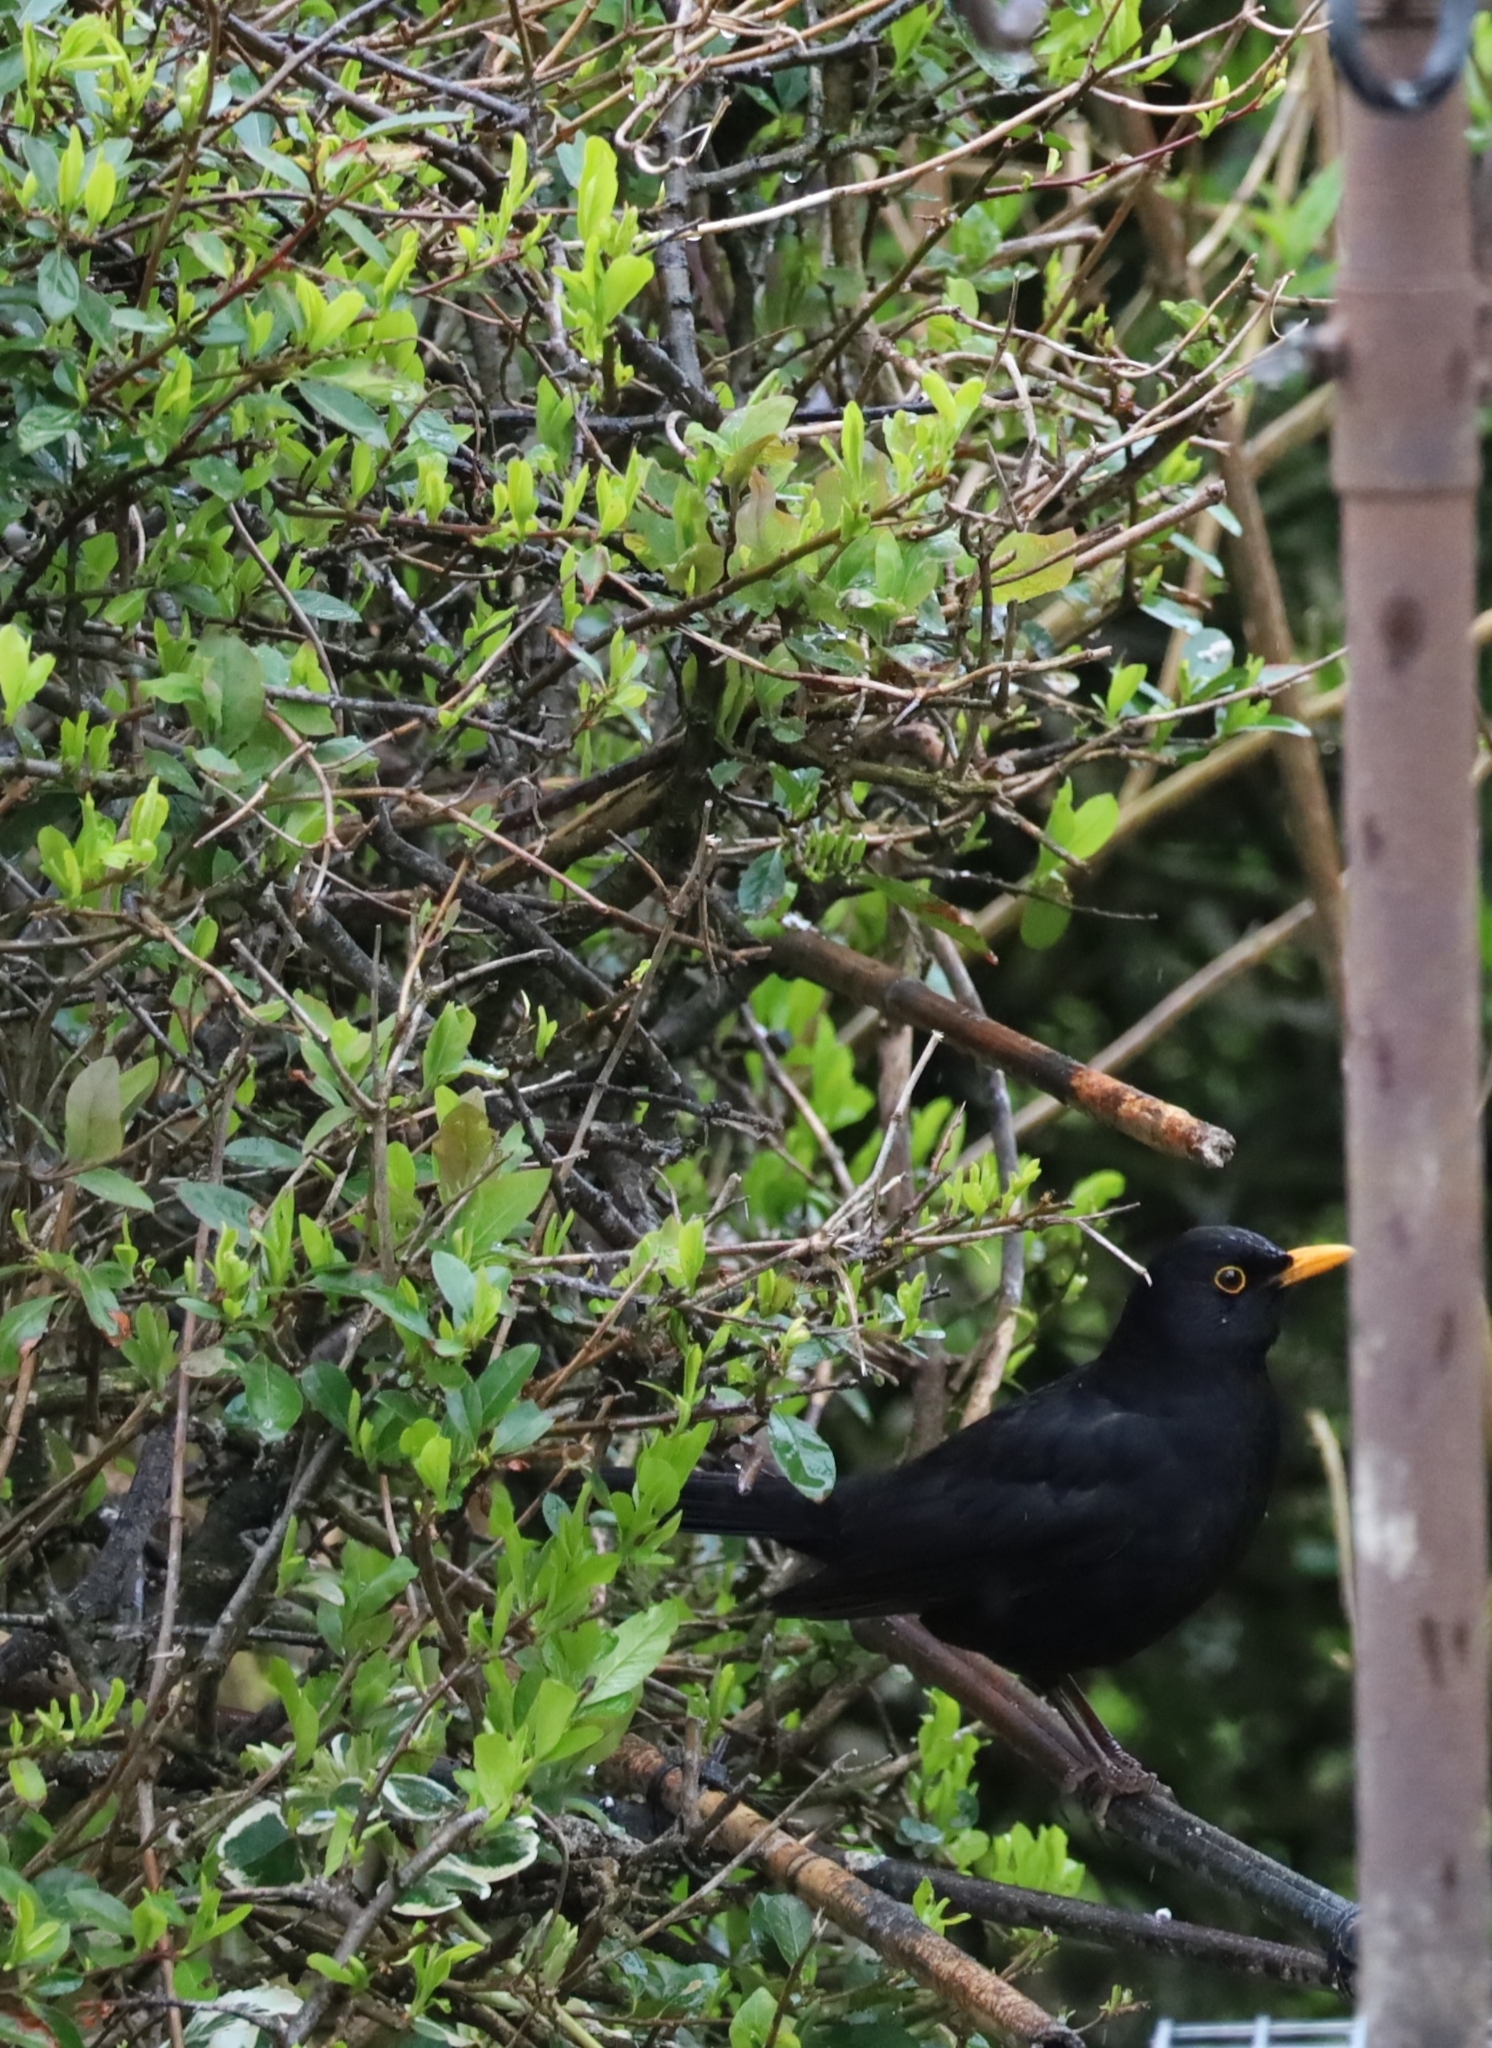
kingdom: Animalia
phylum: Chordata
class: Aves
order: Passeriformes
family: Turdidae
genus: Turdus
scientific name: Turdus merula
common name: Common blackbird
